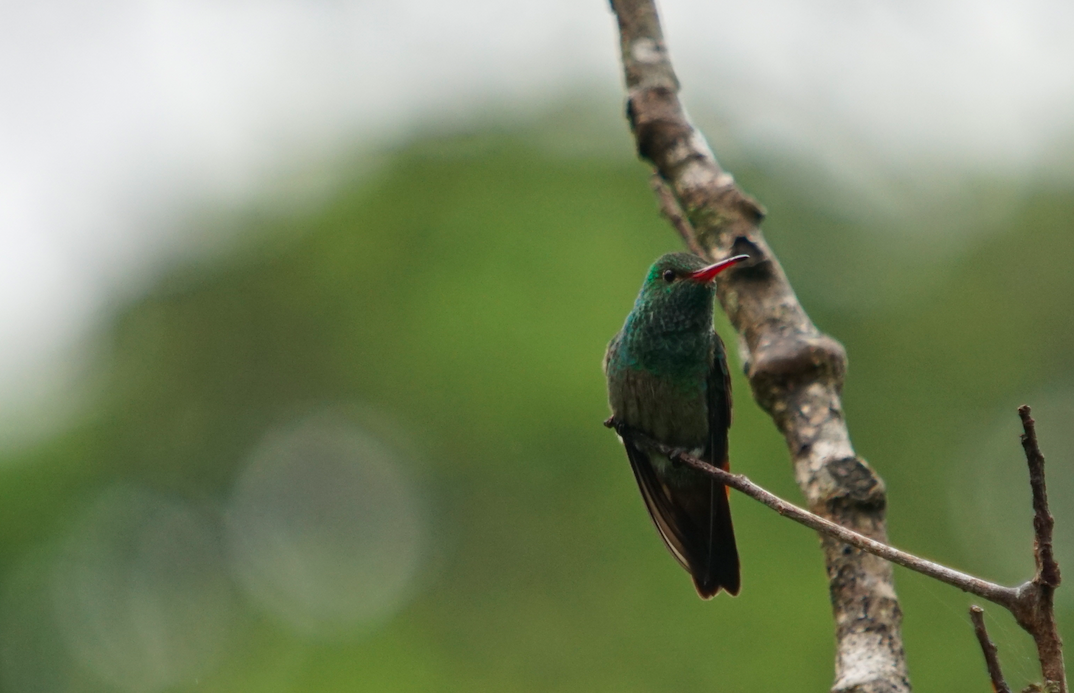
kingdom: Animalia
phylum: Chordata
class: Aves
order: Apodiformes
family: Trochilidae
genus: Amazilia
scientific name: Amazilia tzacatl
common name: Rufous-tailed hummingbird
